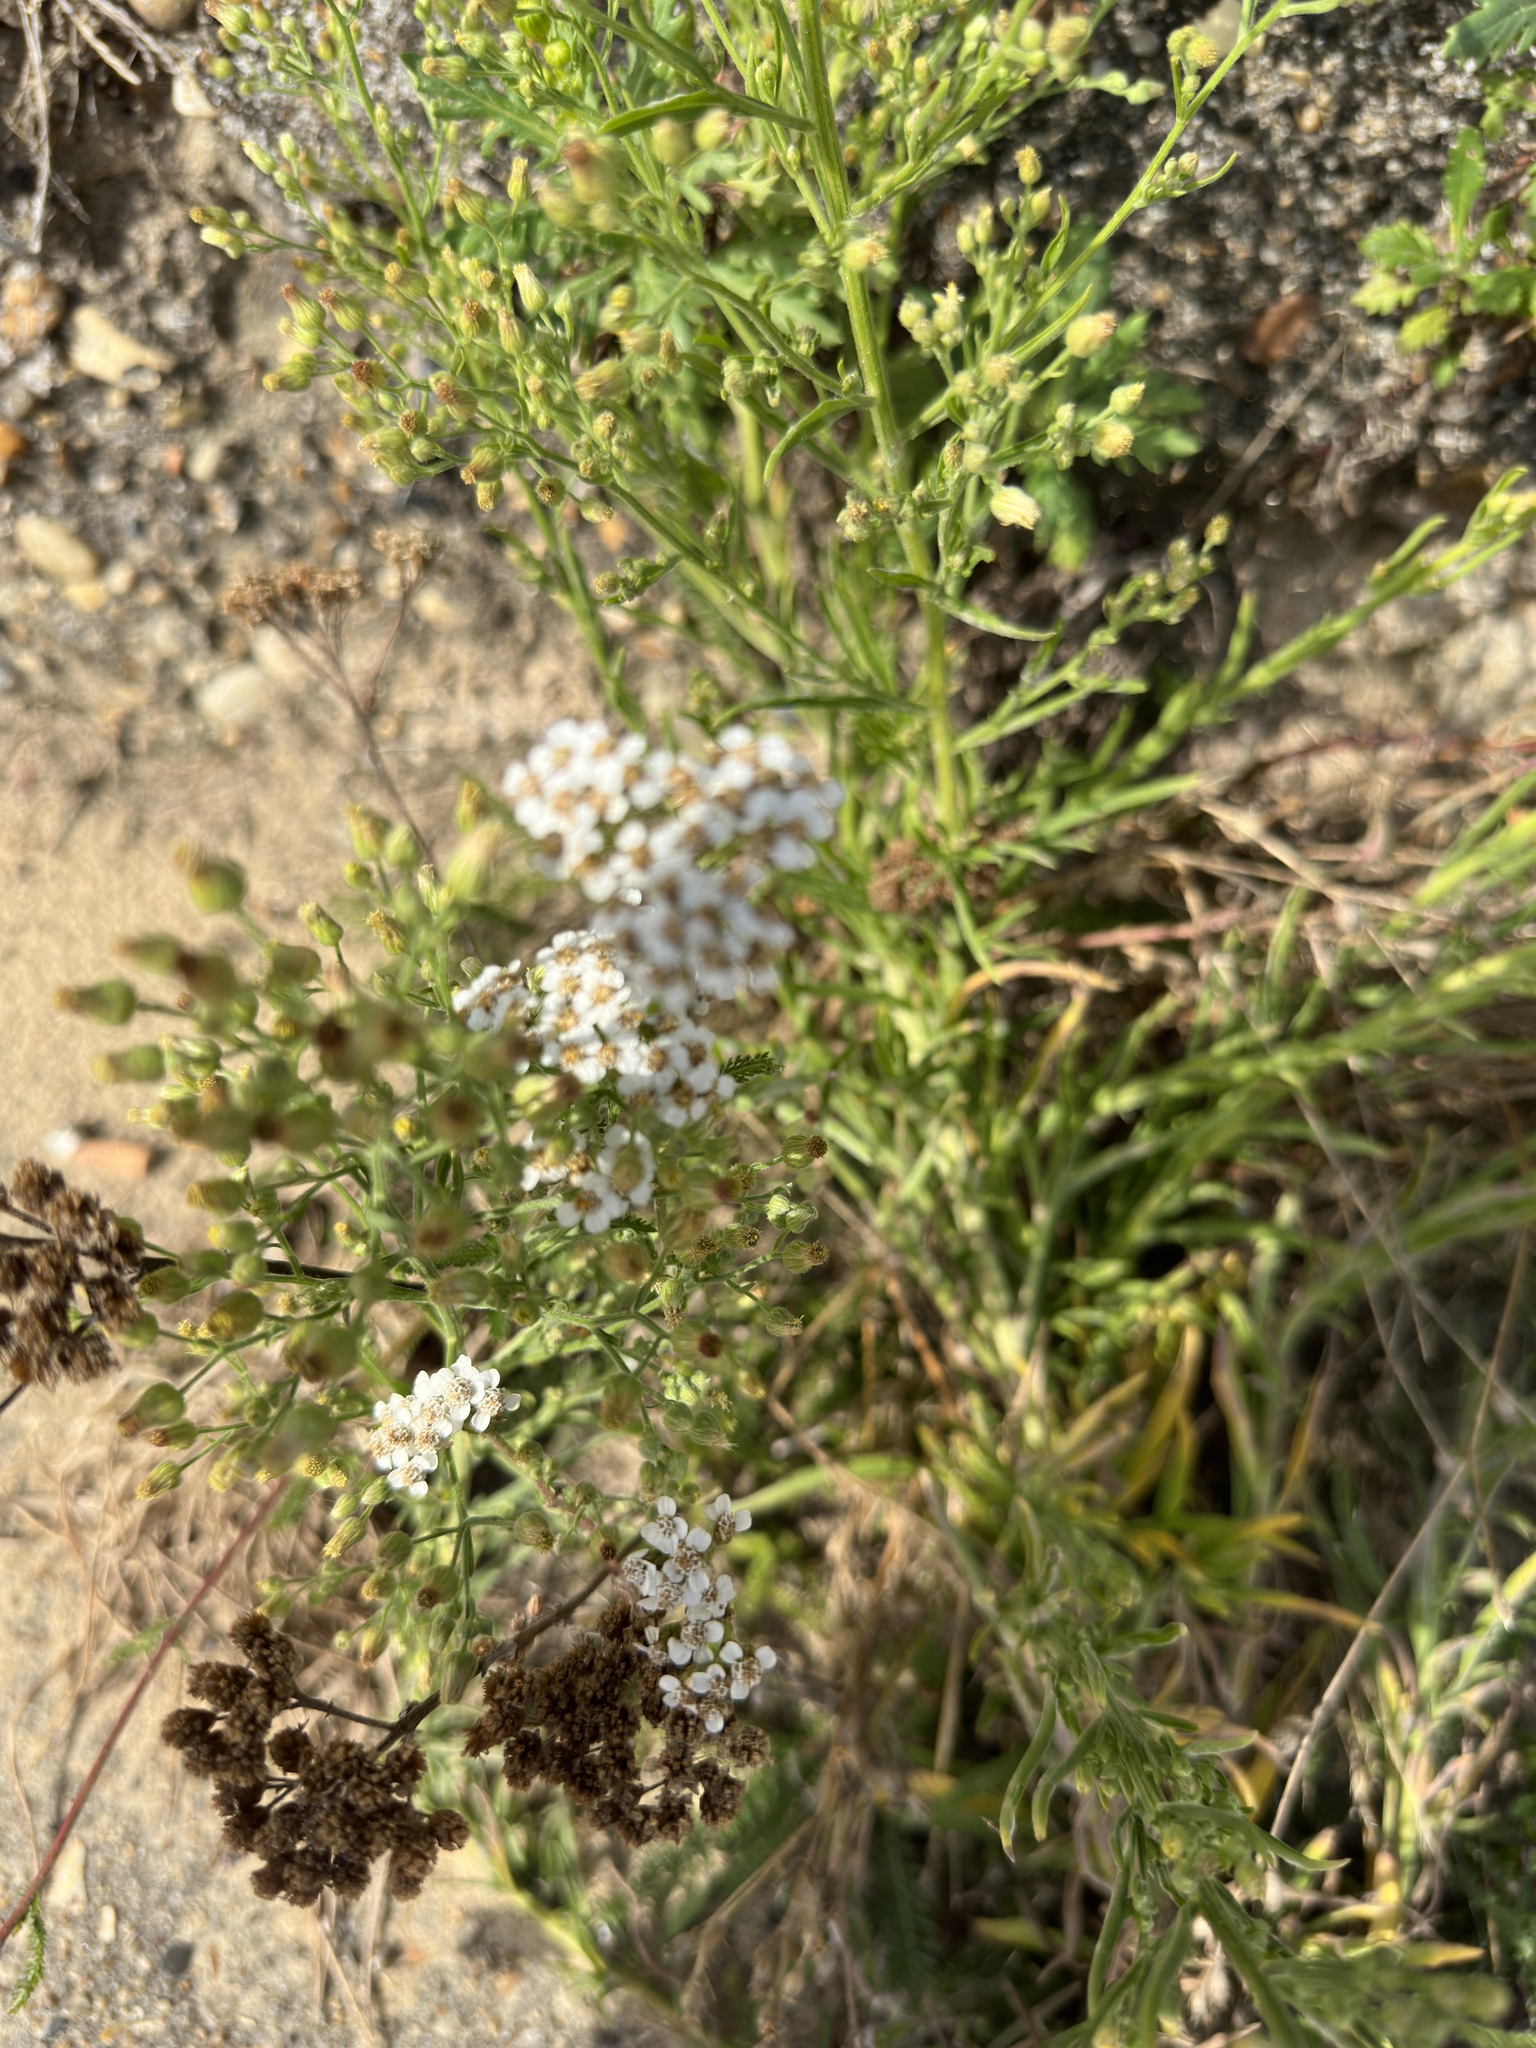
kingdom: Plantae
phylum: Tracheophyta
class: Magnoliopsida
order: Brassicales
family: Brassicaceae
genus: Lobularia
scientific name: Lobularia maritima
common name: Sweet alison
